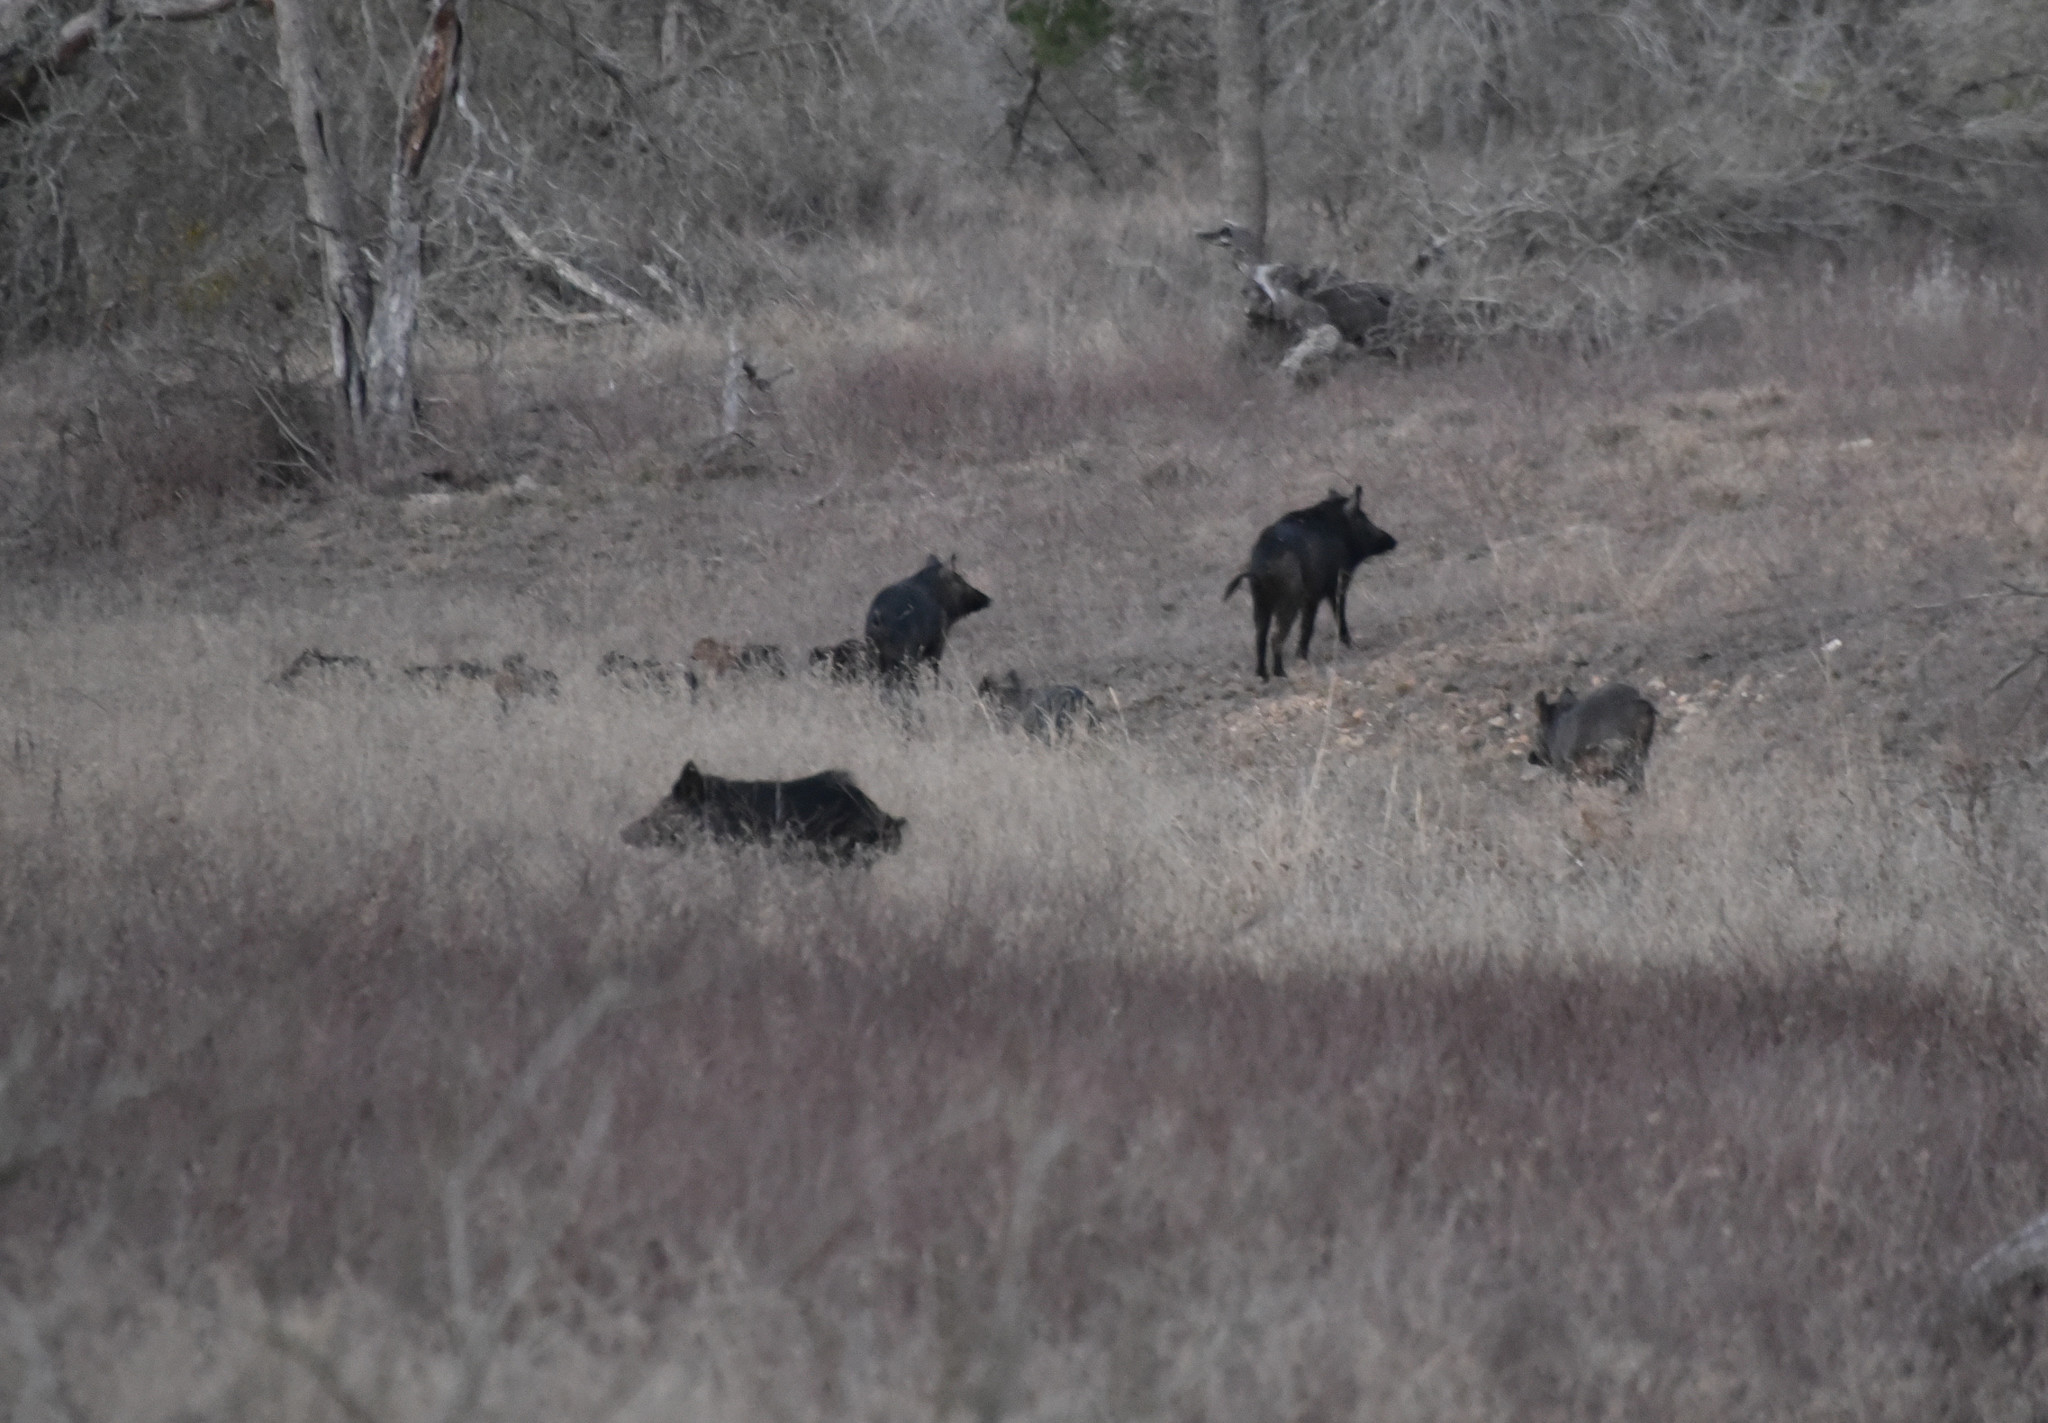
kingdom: Animalia
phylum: Chordata
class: Mammalia
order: Artiodactyla
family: Suidae
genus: Sus
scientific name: Sus scrofa
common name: Wild boar
